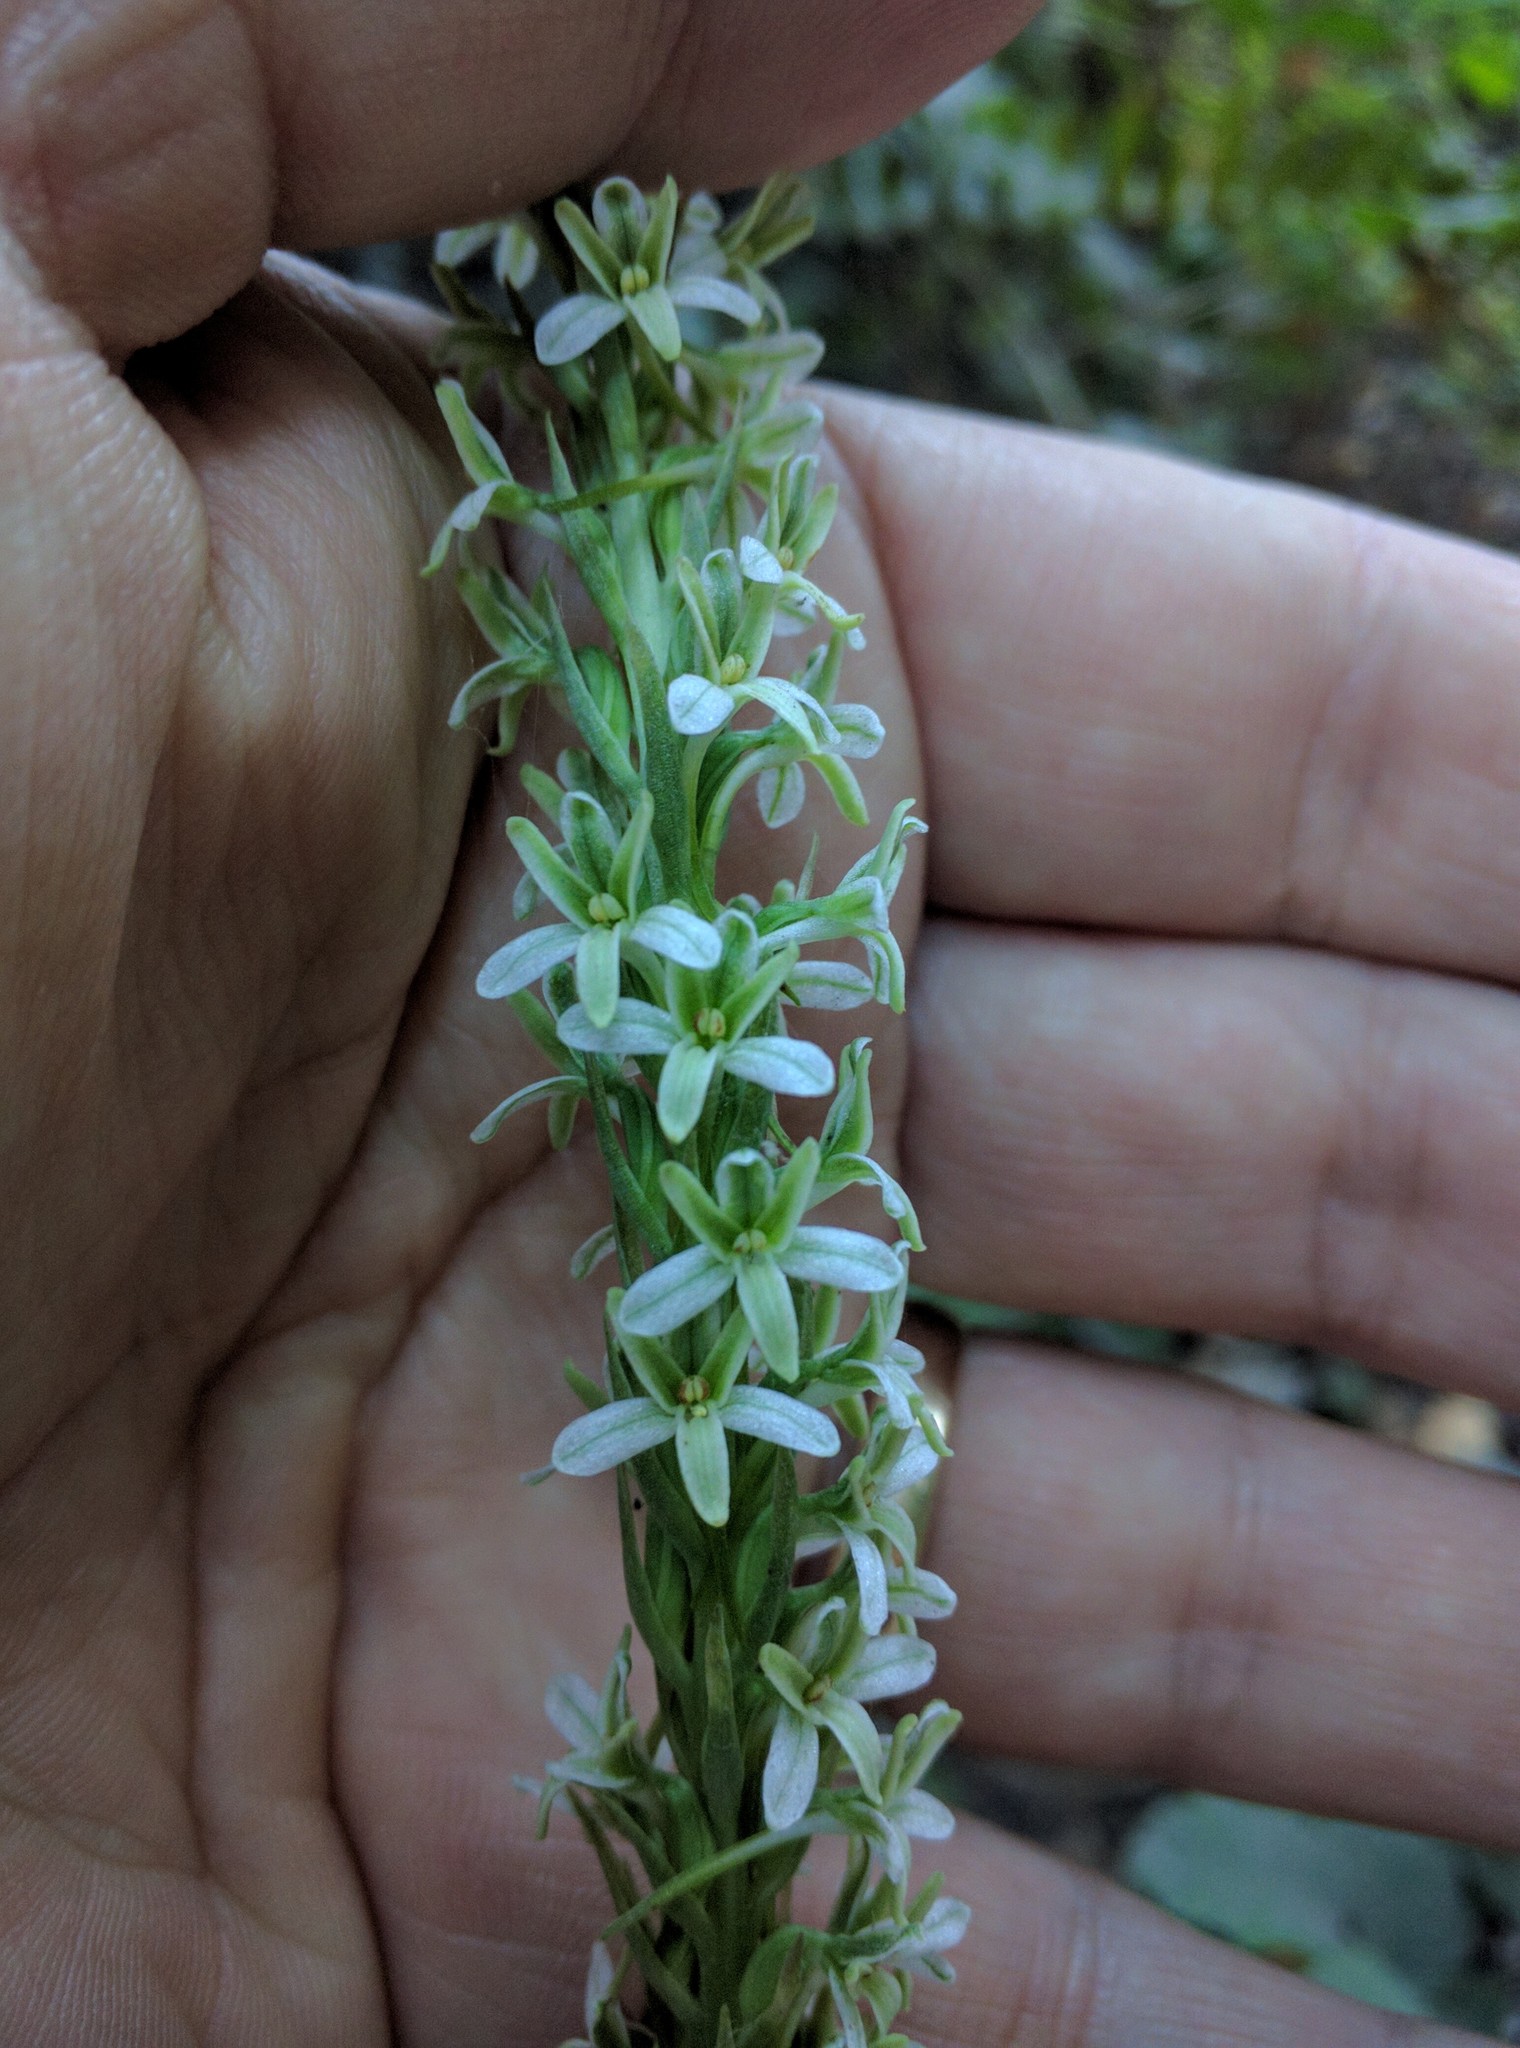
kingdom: Plantae
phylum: Tracheophyta
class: Liliopsida
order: Asparagales
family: Orchidaceae
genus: Platanthera
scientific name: Platanthera elegans
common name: Coast piperia
